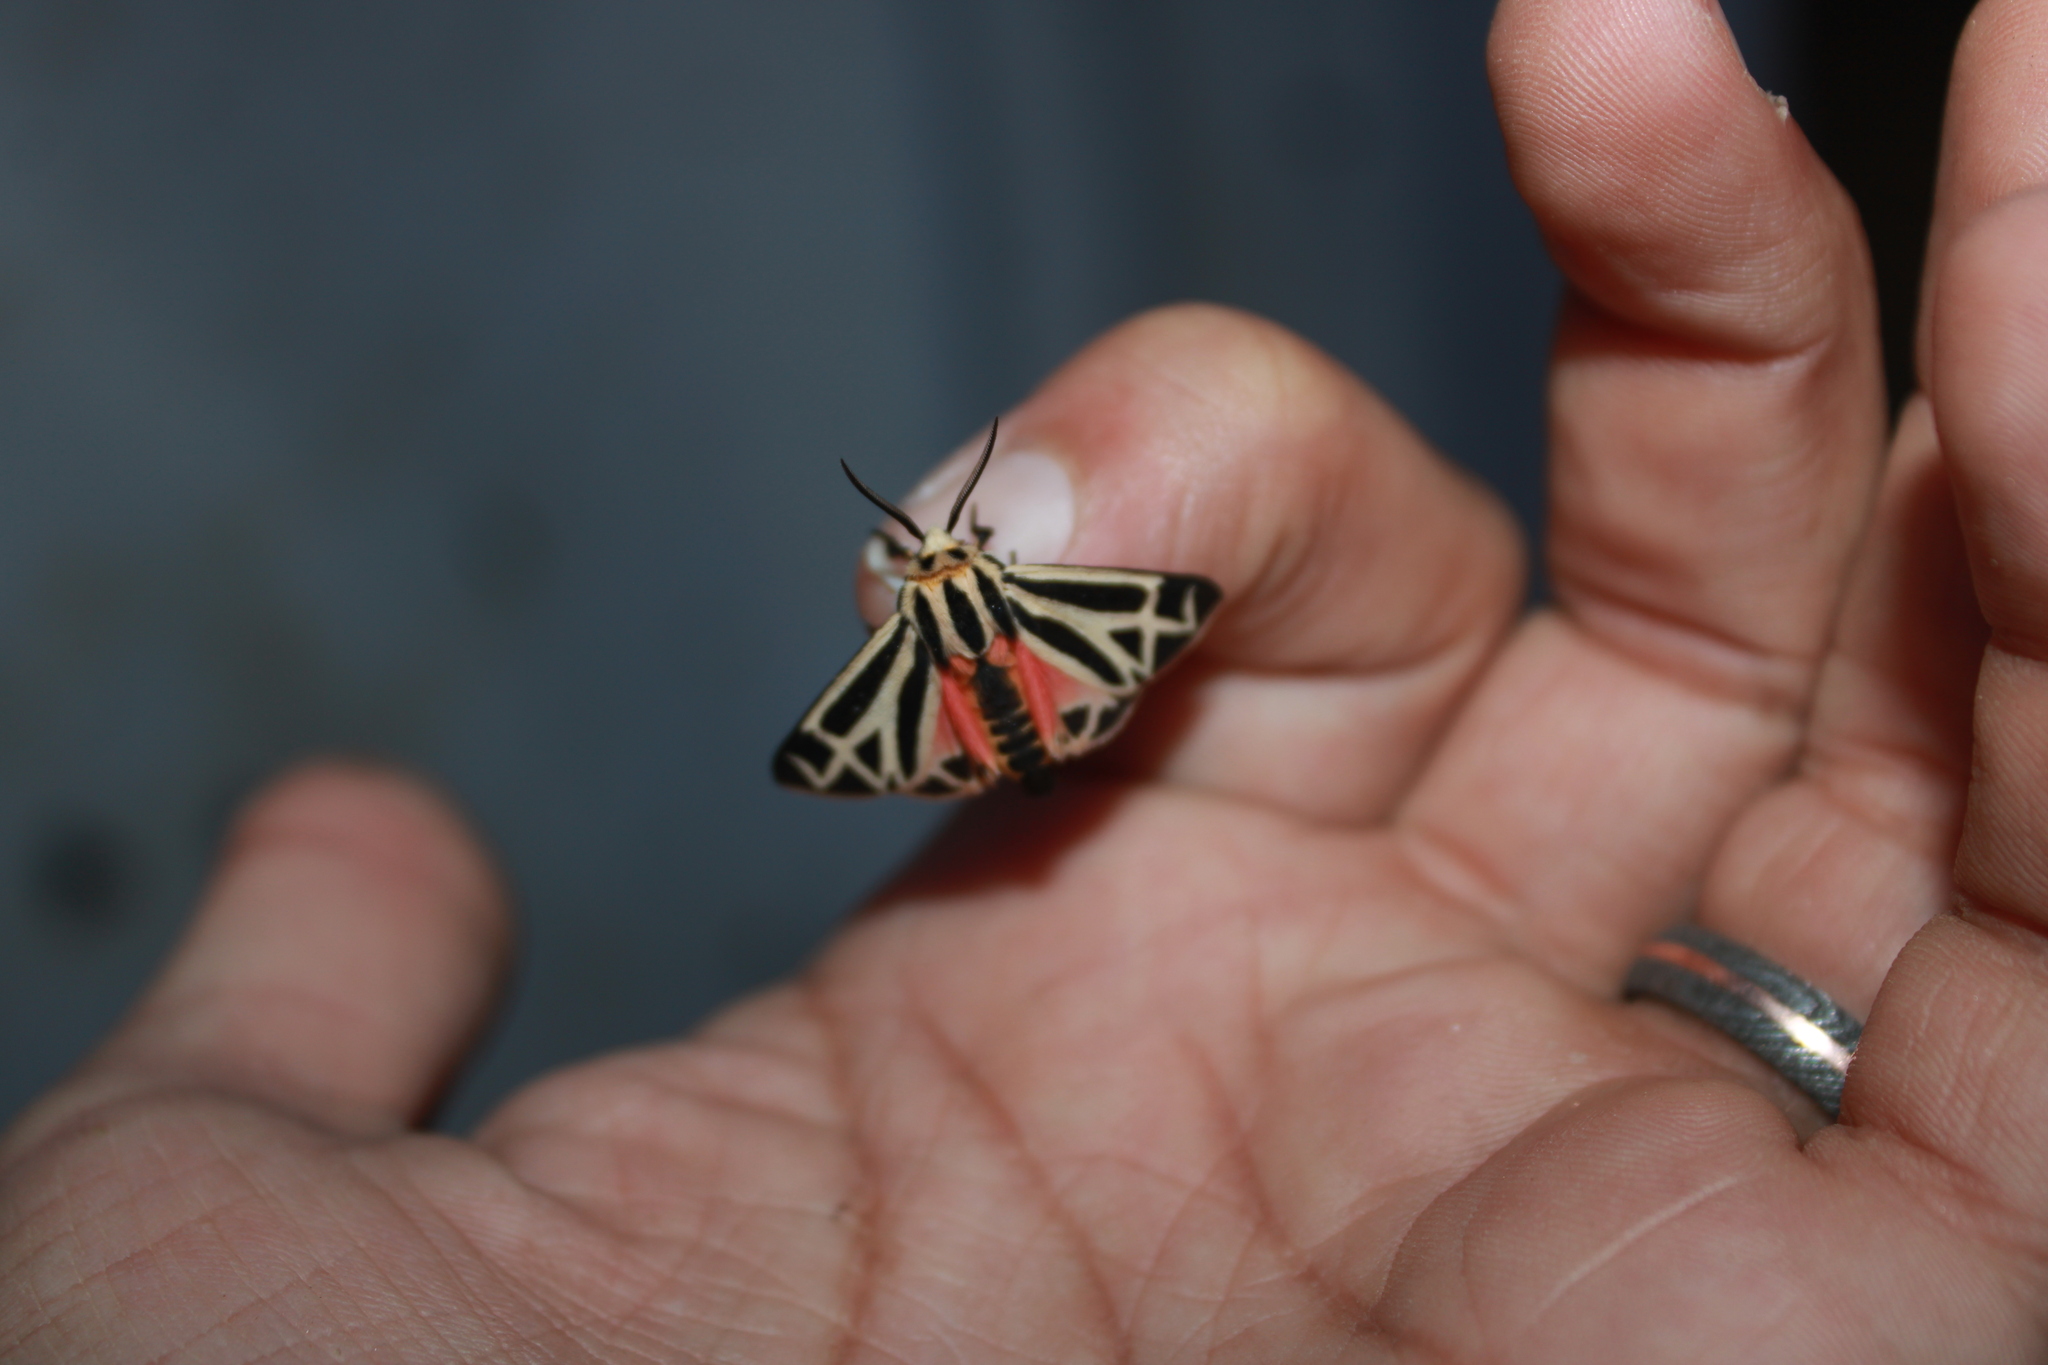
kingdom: Animalia
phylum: Arthropoda
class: Insecta
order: Lepidoptera
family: Erebidae
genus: Apantesis
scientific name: Apantesis phalerata
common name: Harnessed tiger moth
